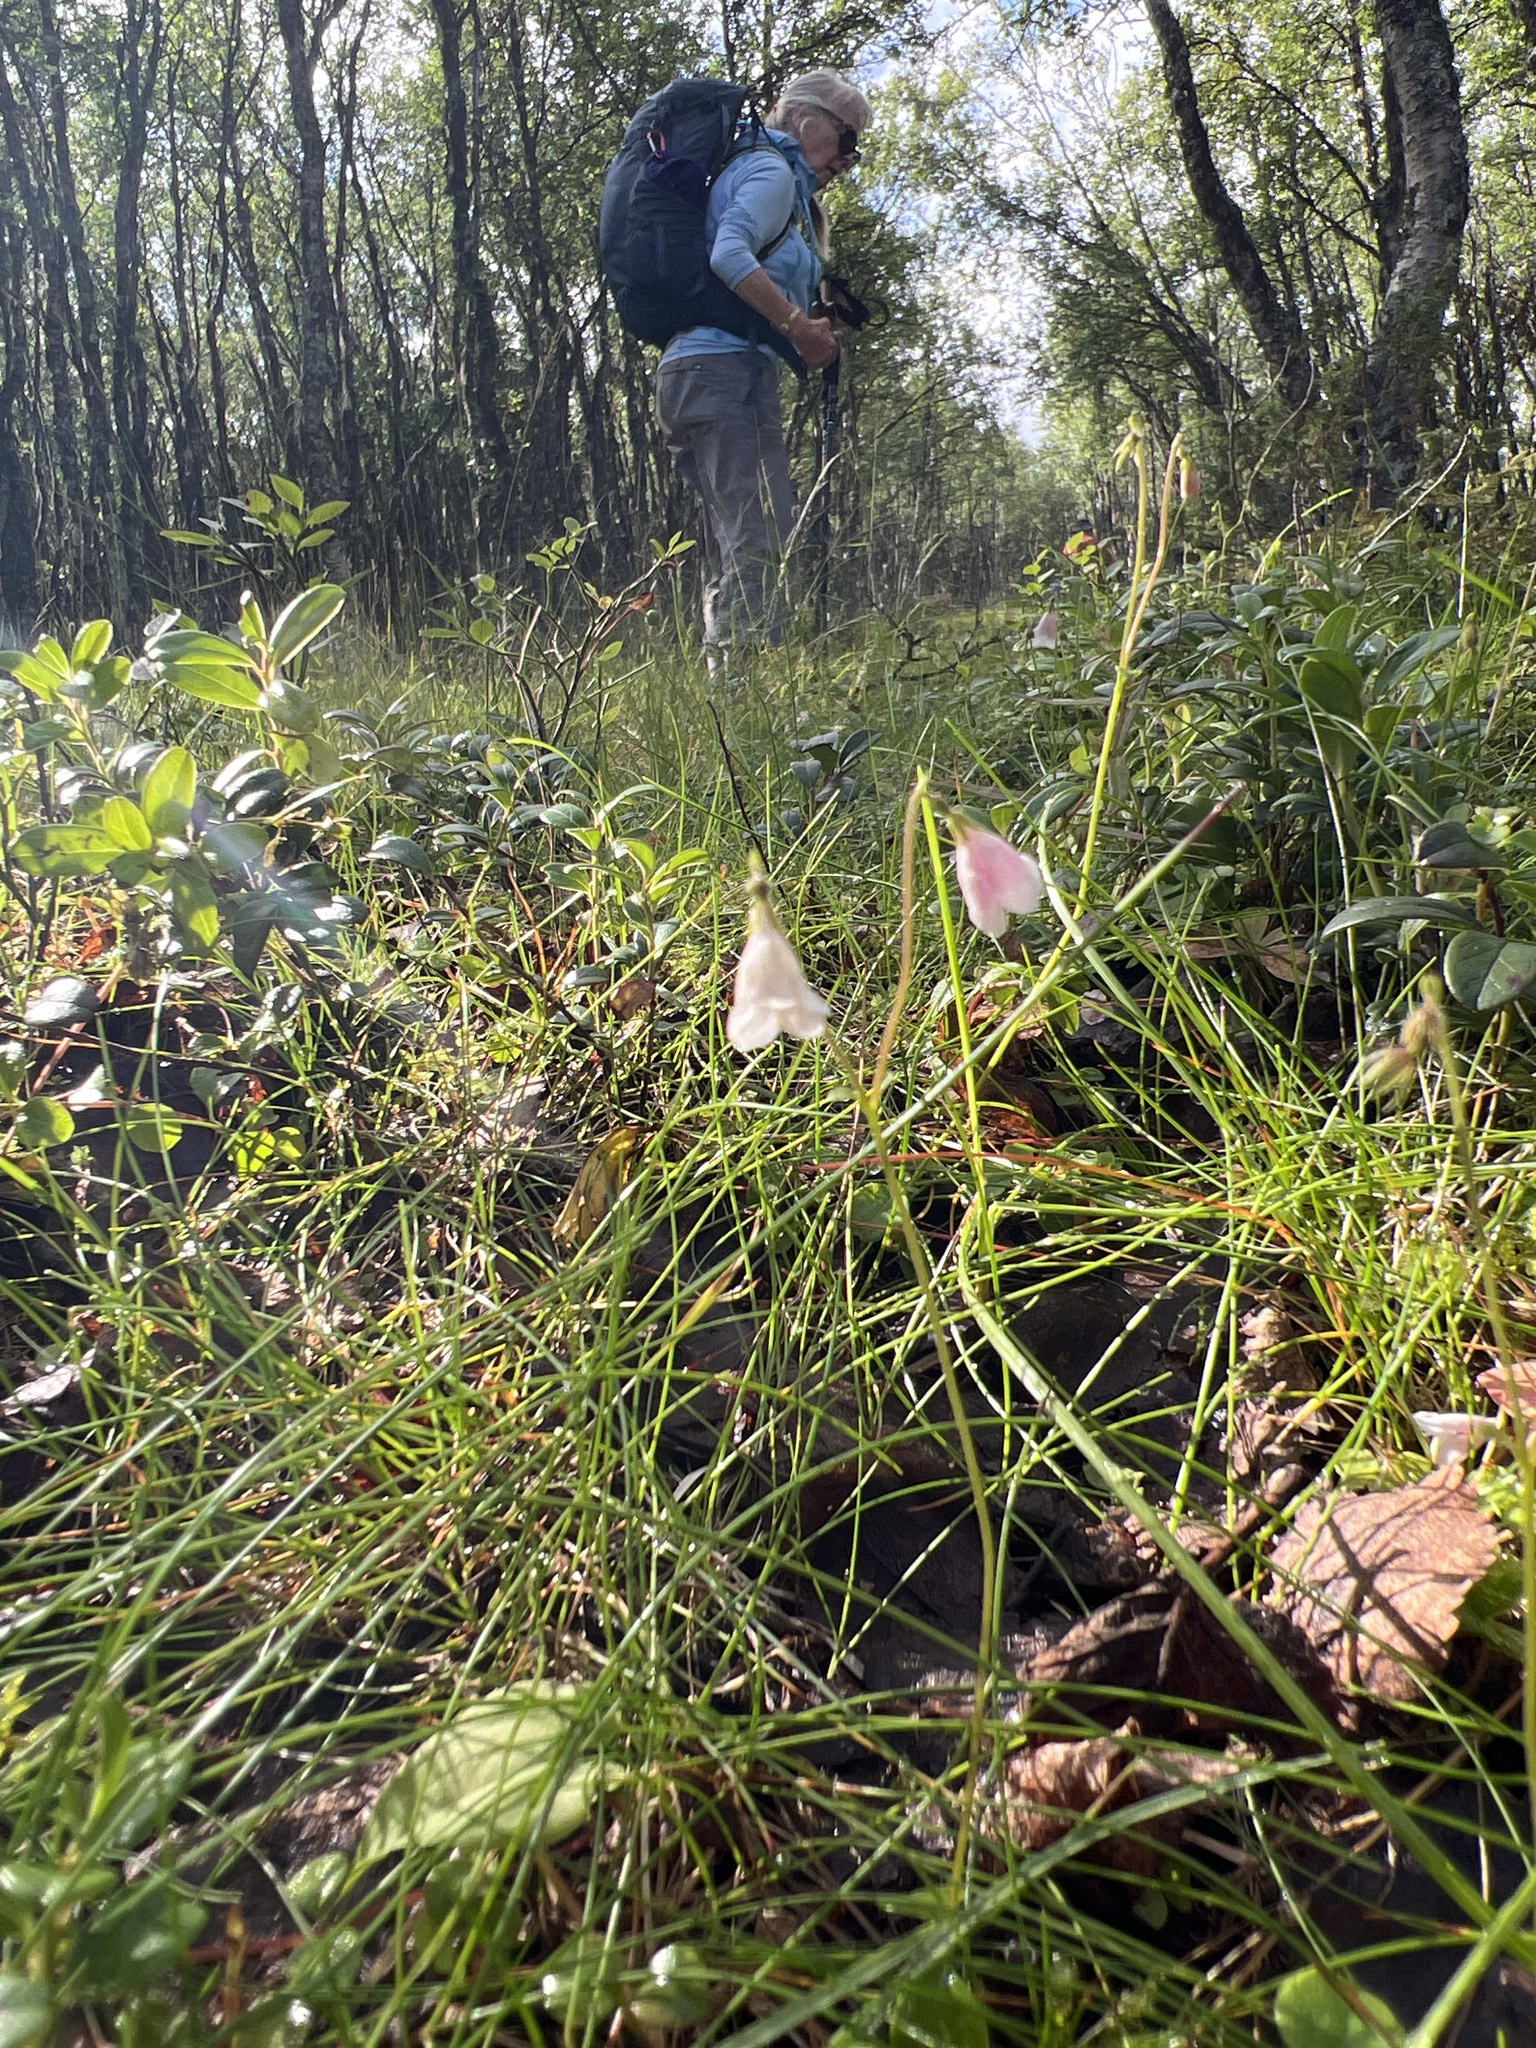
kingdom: Plantae
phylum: Tracheophyta
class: Magnoliopsida
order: Dipsacales
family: Caprifoliaceae
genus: Linnaea
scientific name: Linnaea borealis
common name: Twinflower
